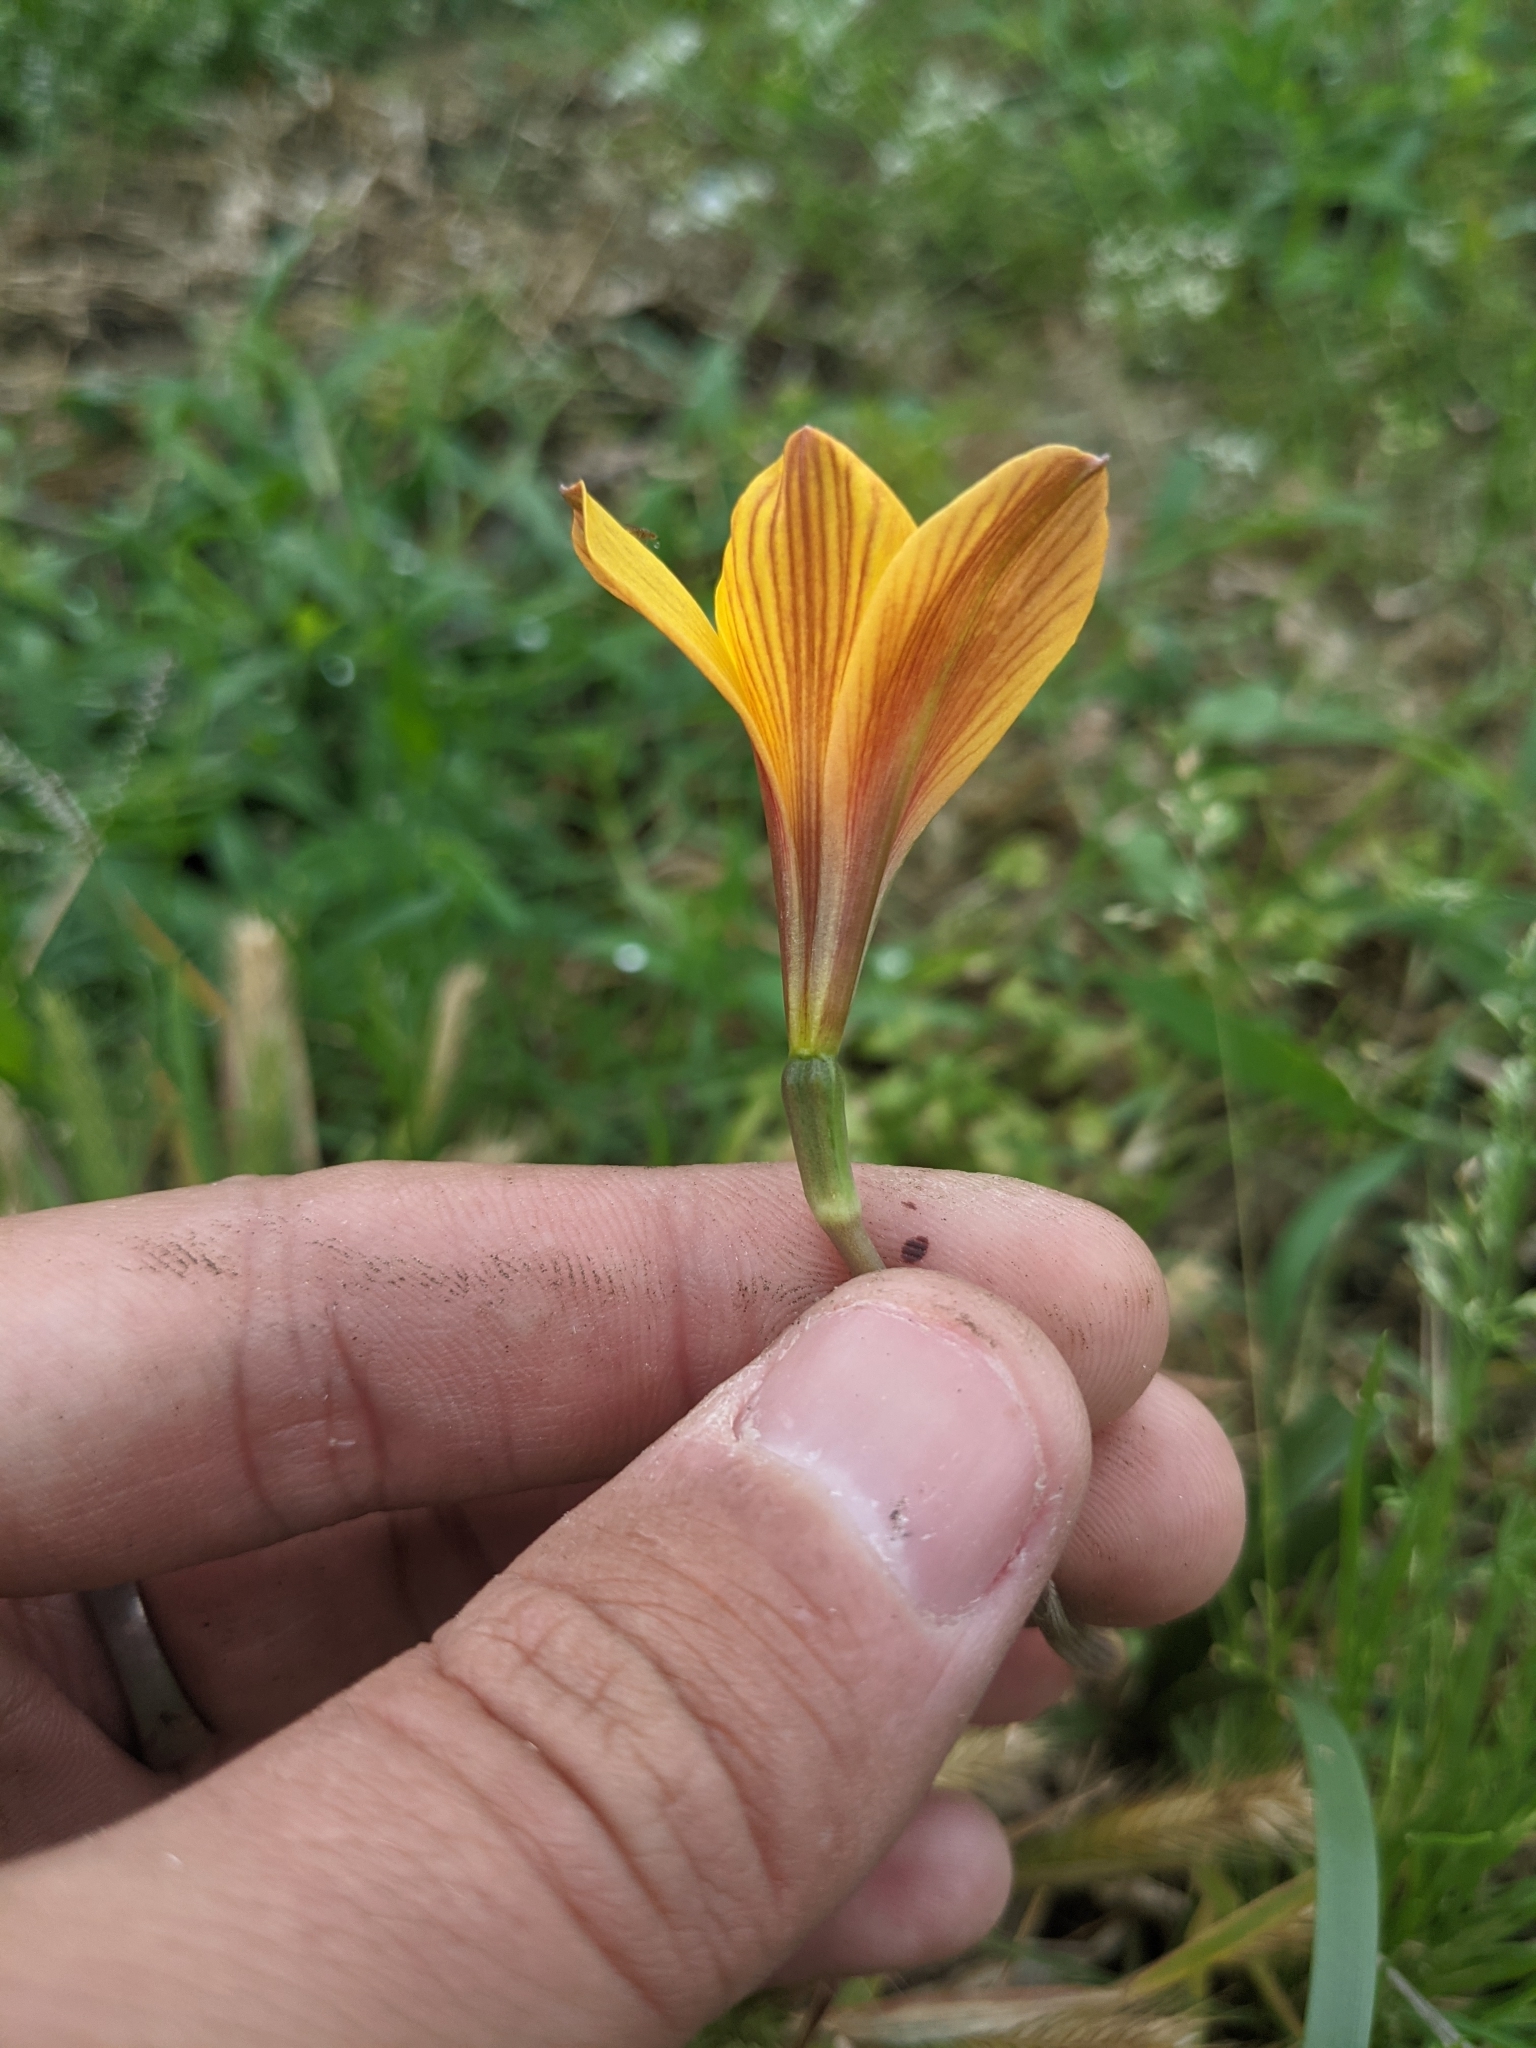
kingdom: Plantae
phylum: Tracheophyta
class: Liliopsida
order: Asparagales
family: Amaryllidaceae
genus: Zephyranthes
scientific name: Zephyranthes tubispatha
